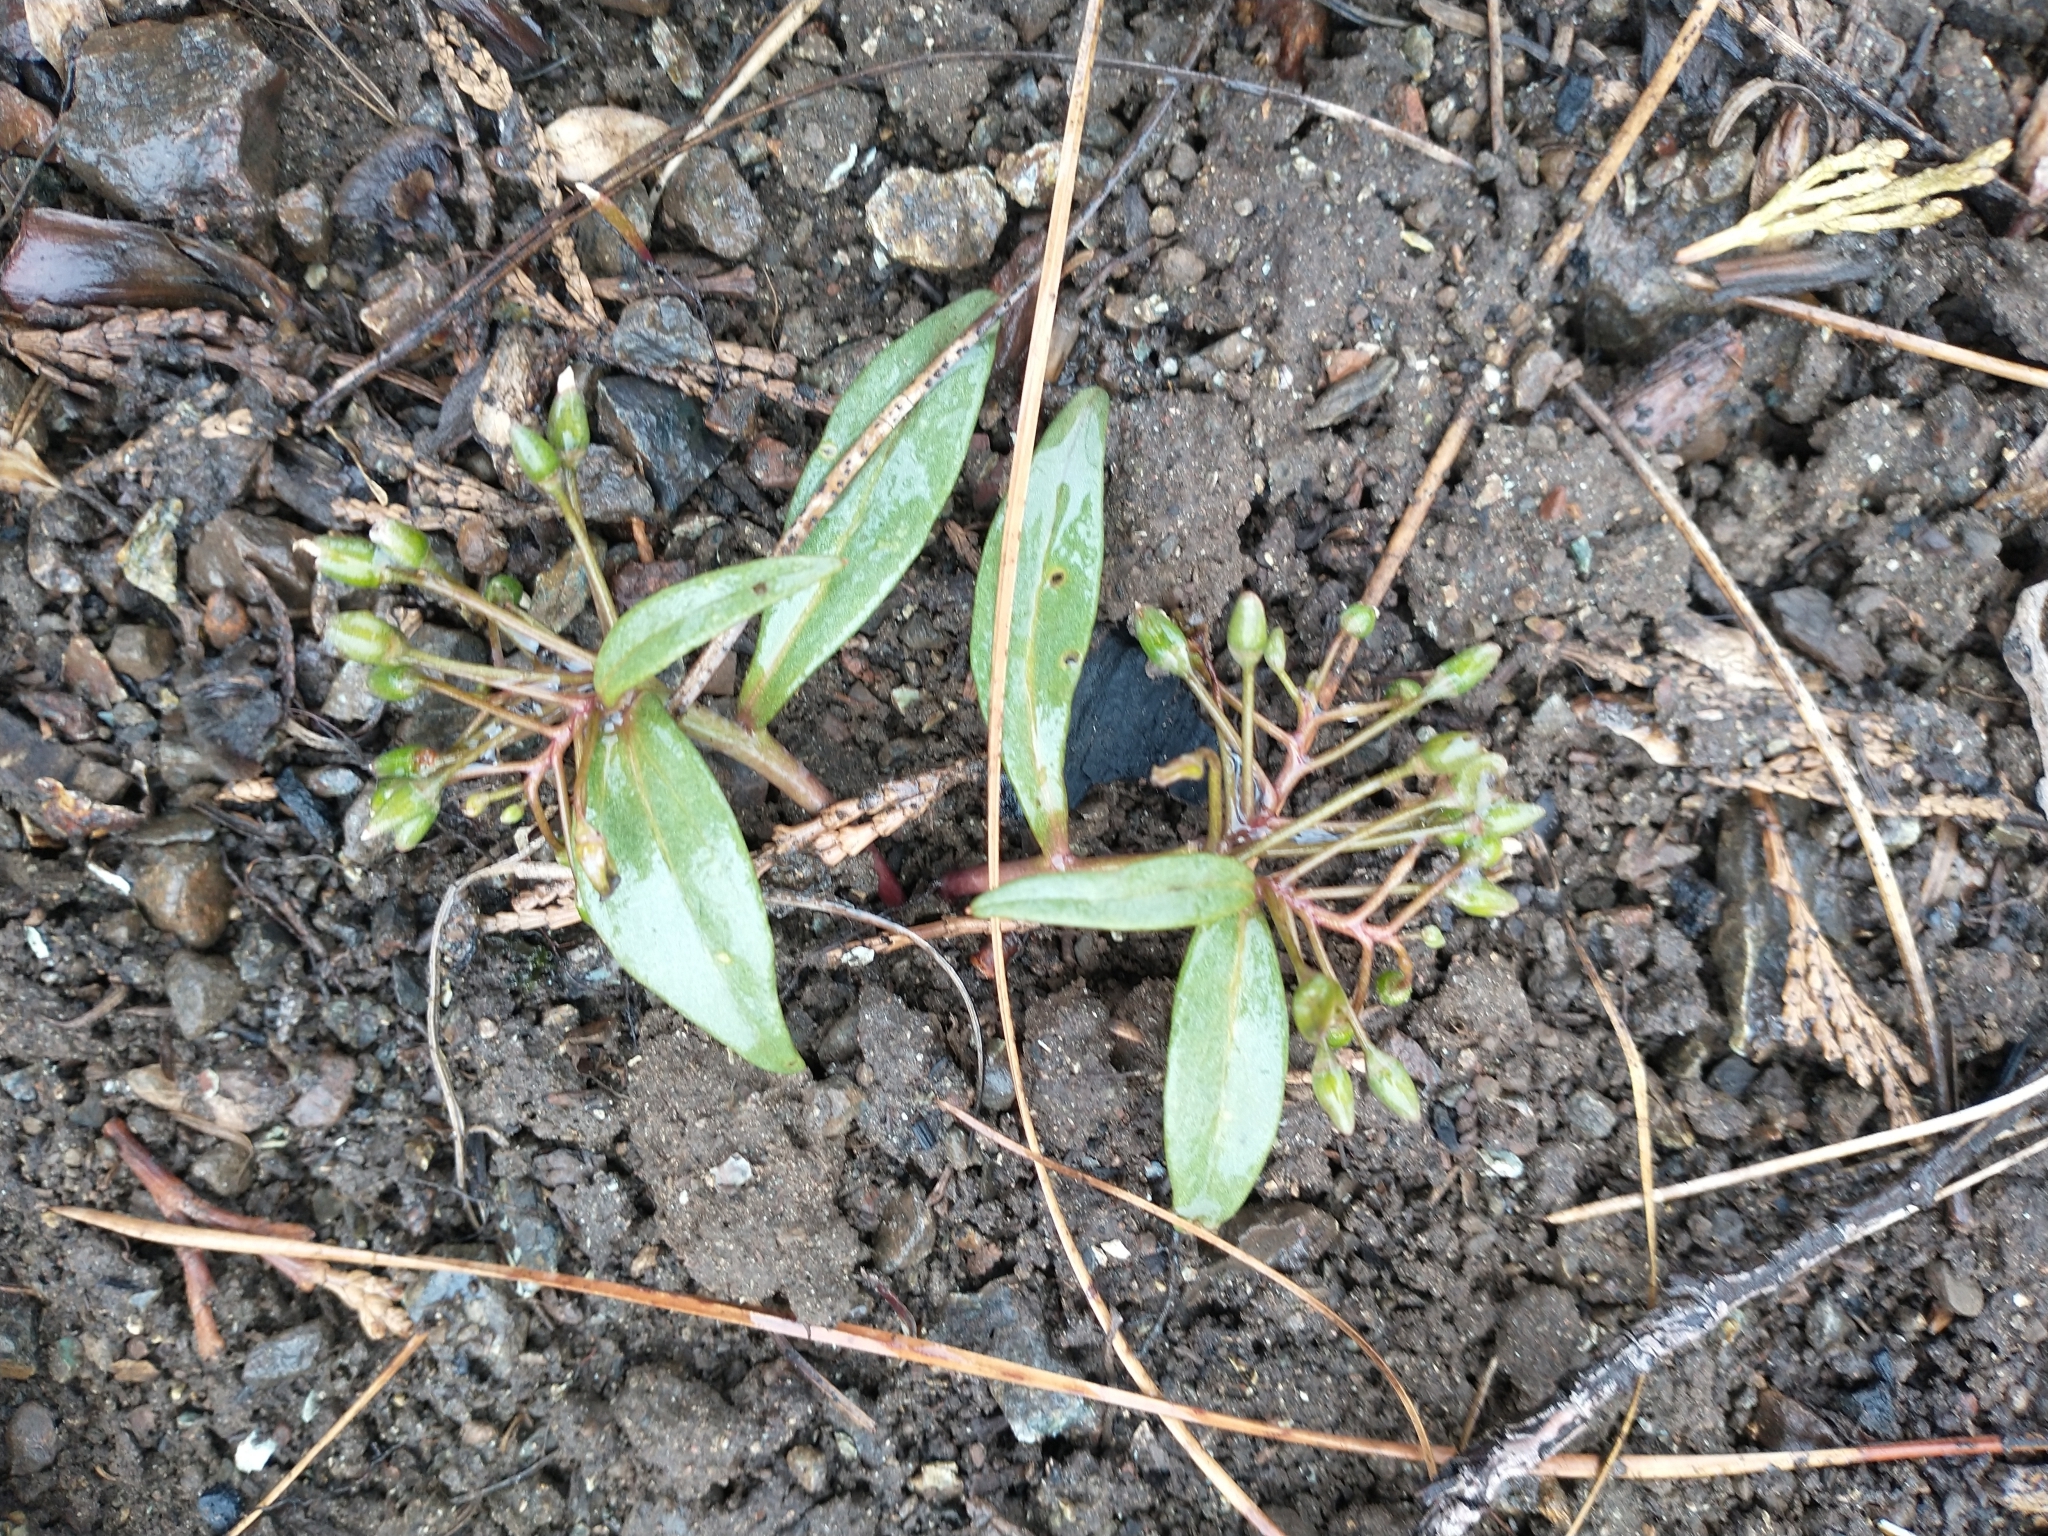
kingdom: Plantae
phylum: Tracheophyta
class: Magnoliopsida
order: Caryophyllales
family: Montiaceae
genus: Claytonia
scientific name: Claytonia serpenticola
